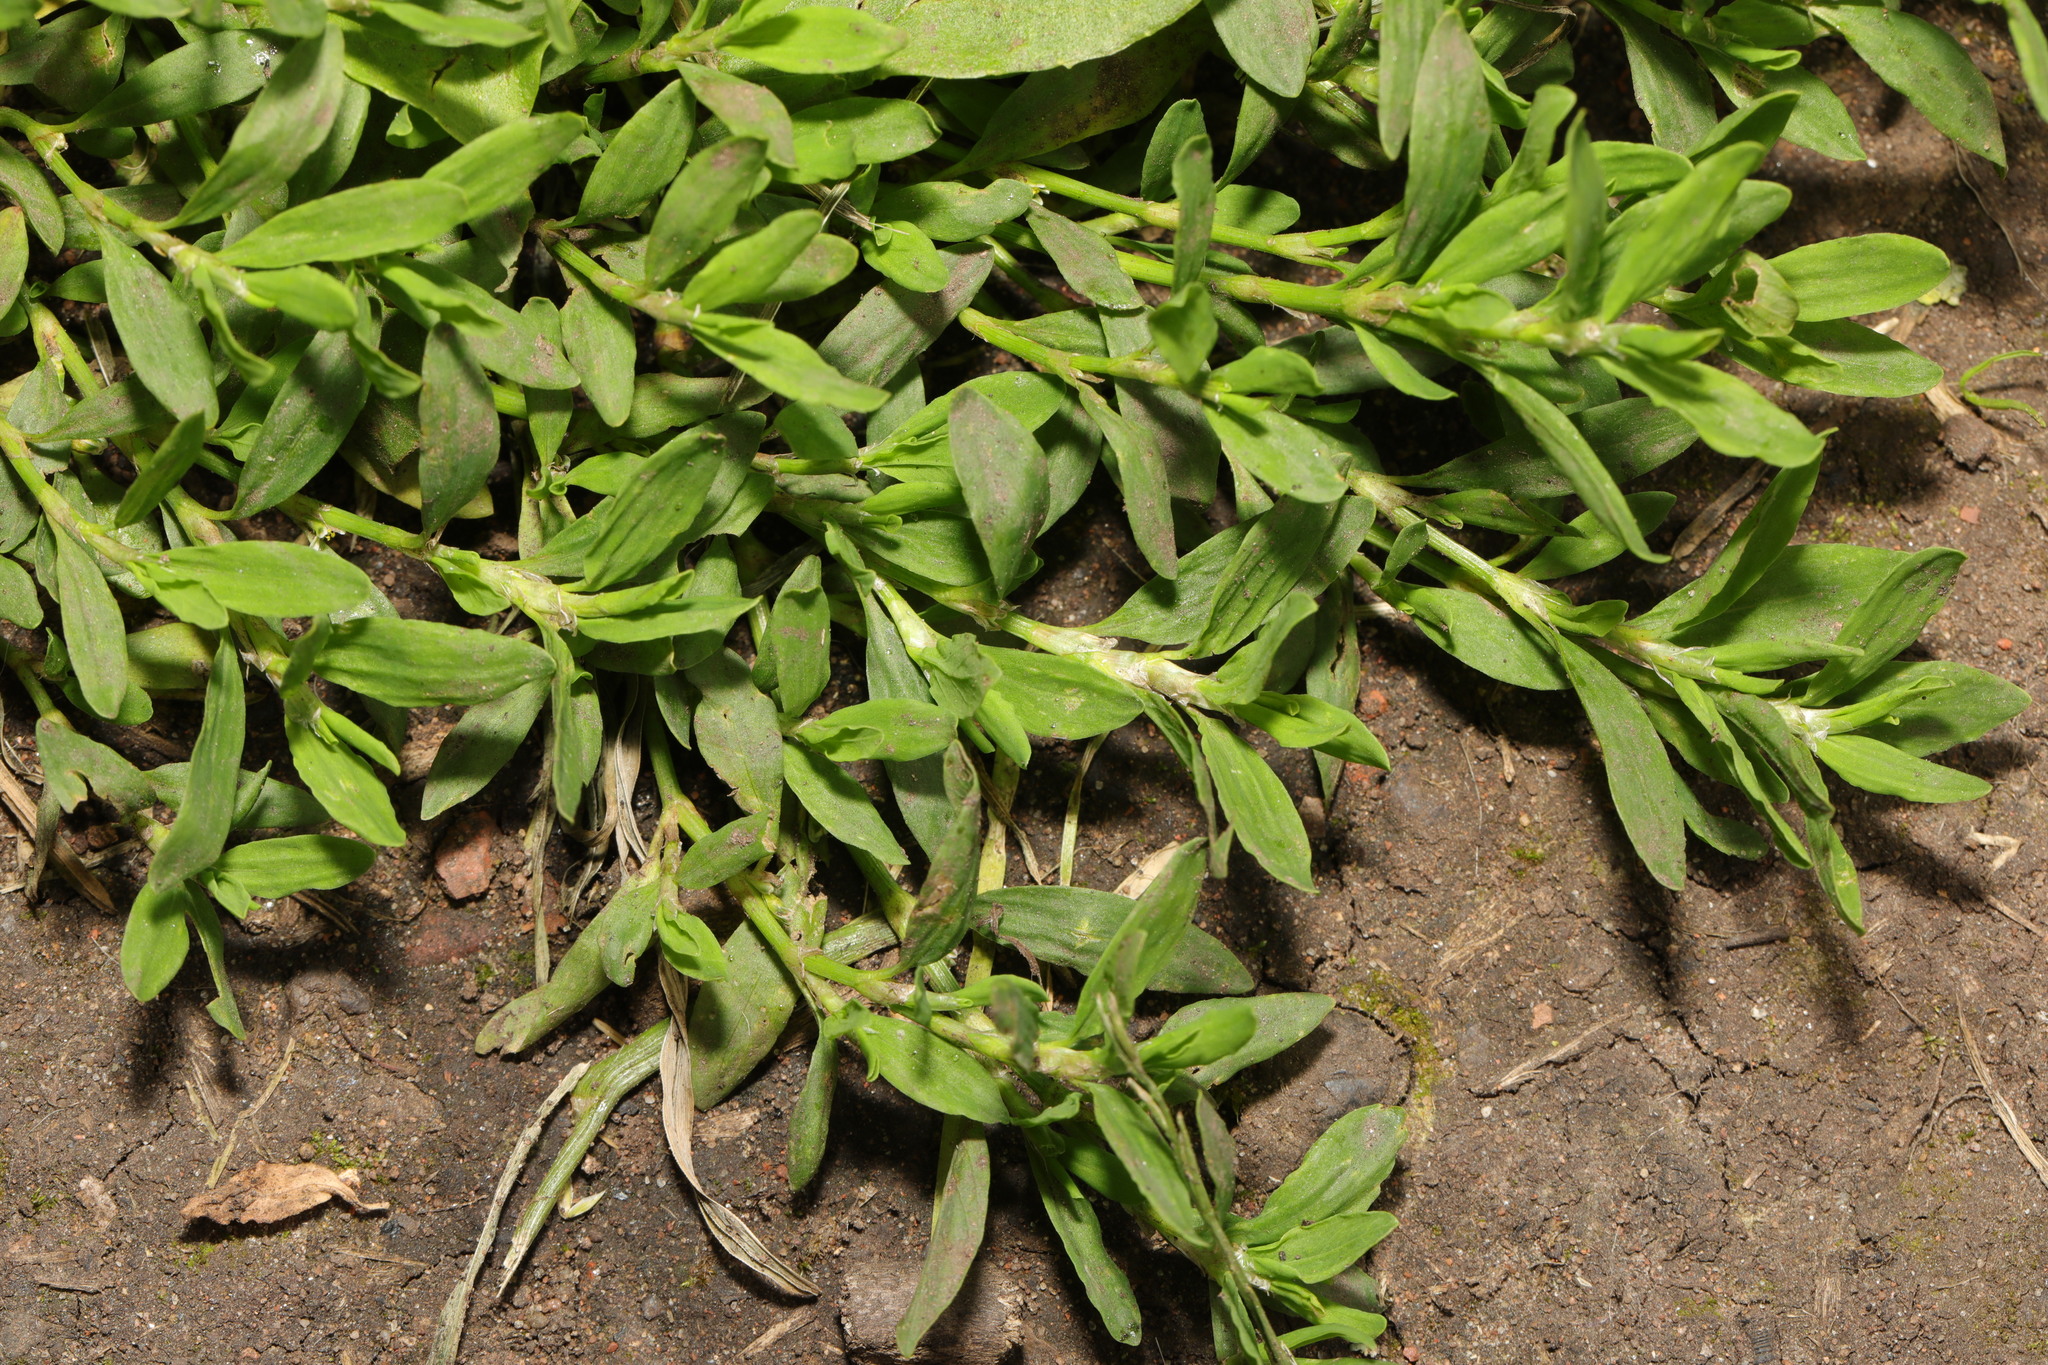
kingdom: Plantae
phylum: Tracheophyta
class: Magnoliopsida
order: Caryophyllales
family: Polygonaceae
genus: Polygonum
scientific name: Polygonum aviculare
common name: Prostrate knotweed
